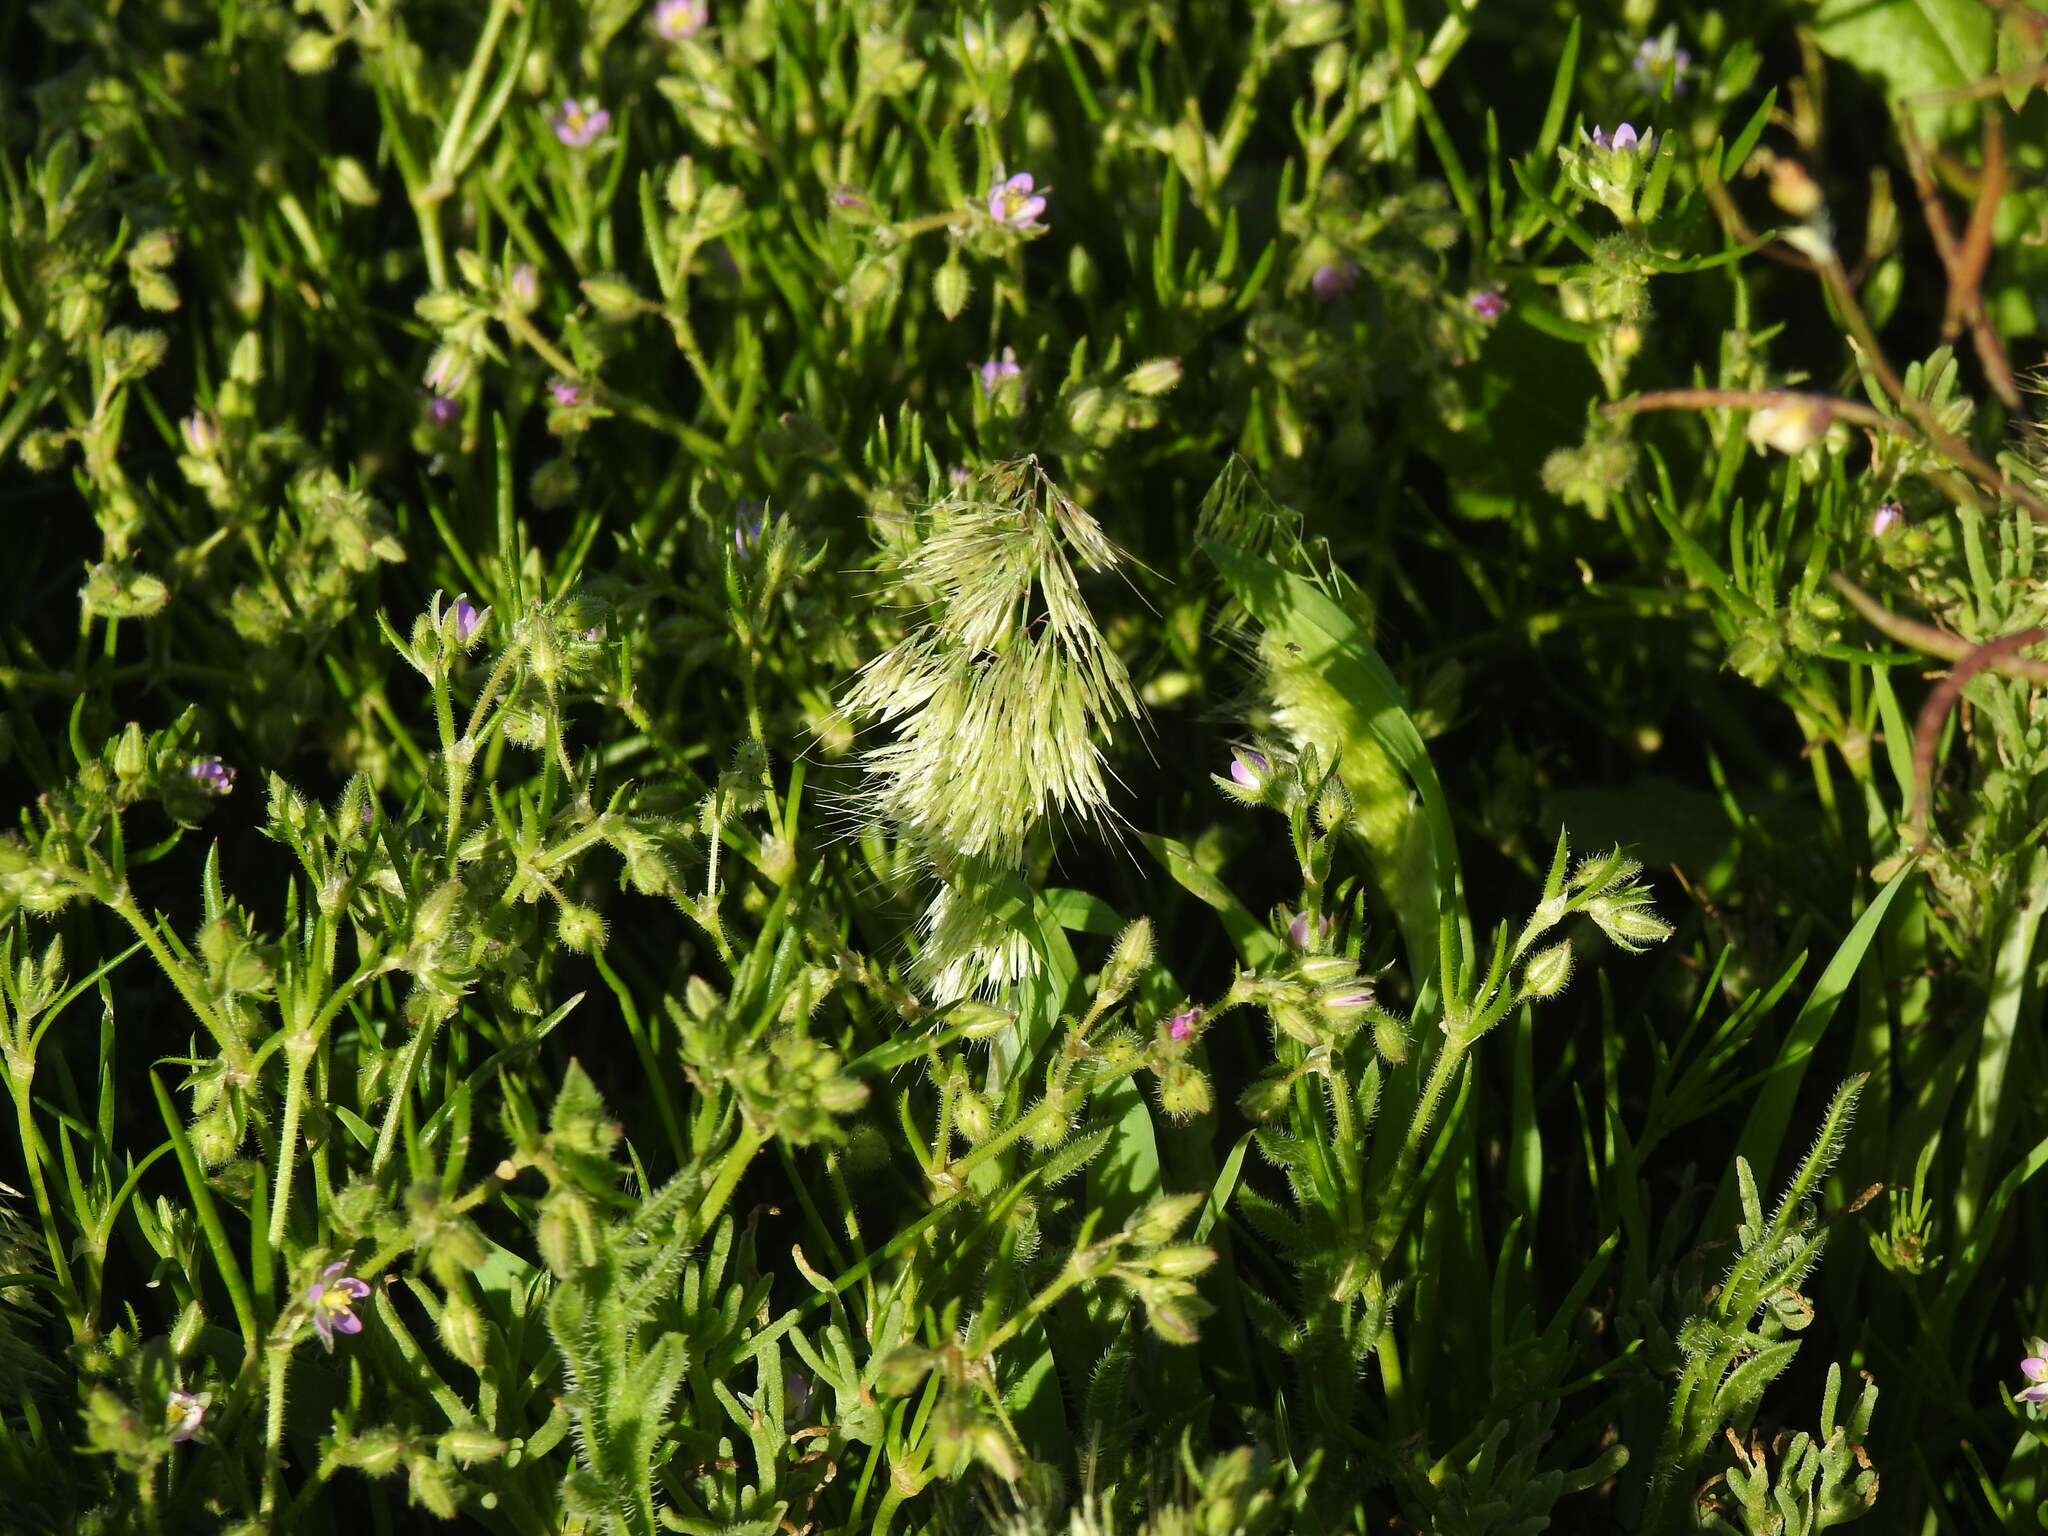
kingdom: Plantae
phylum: Tracheophyta
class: Liliopsida
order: Poales
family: Poaceae
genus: Lamarckia
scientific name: Lamarckia aurea
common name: Golden dog's-tail
